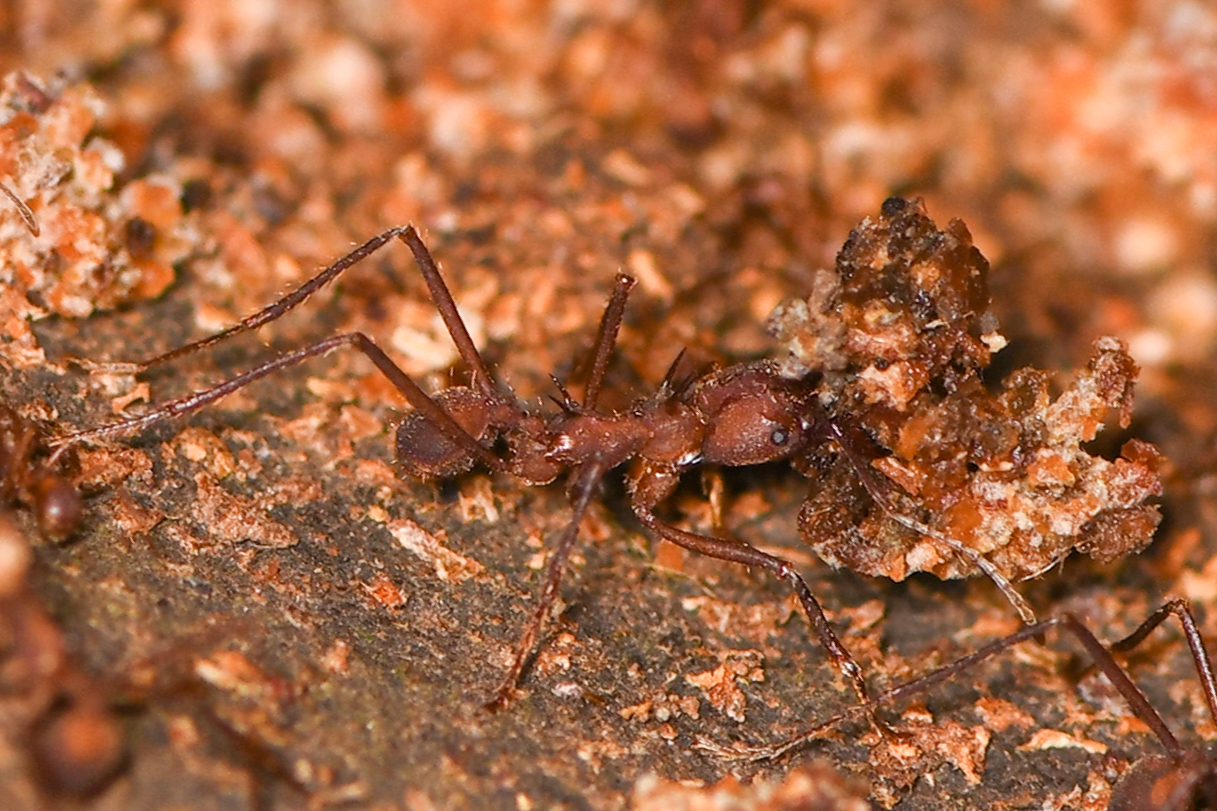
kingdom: Animalia
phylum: Arthropoda
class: Insecta
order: Hymenoptera
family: Formicidae
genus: Atta
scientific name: Atta colombica
